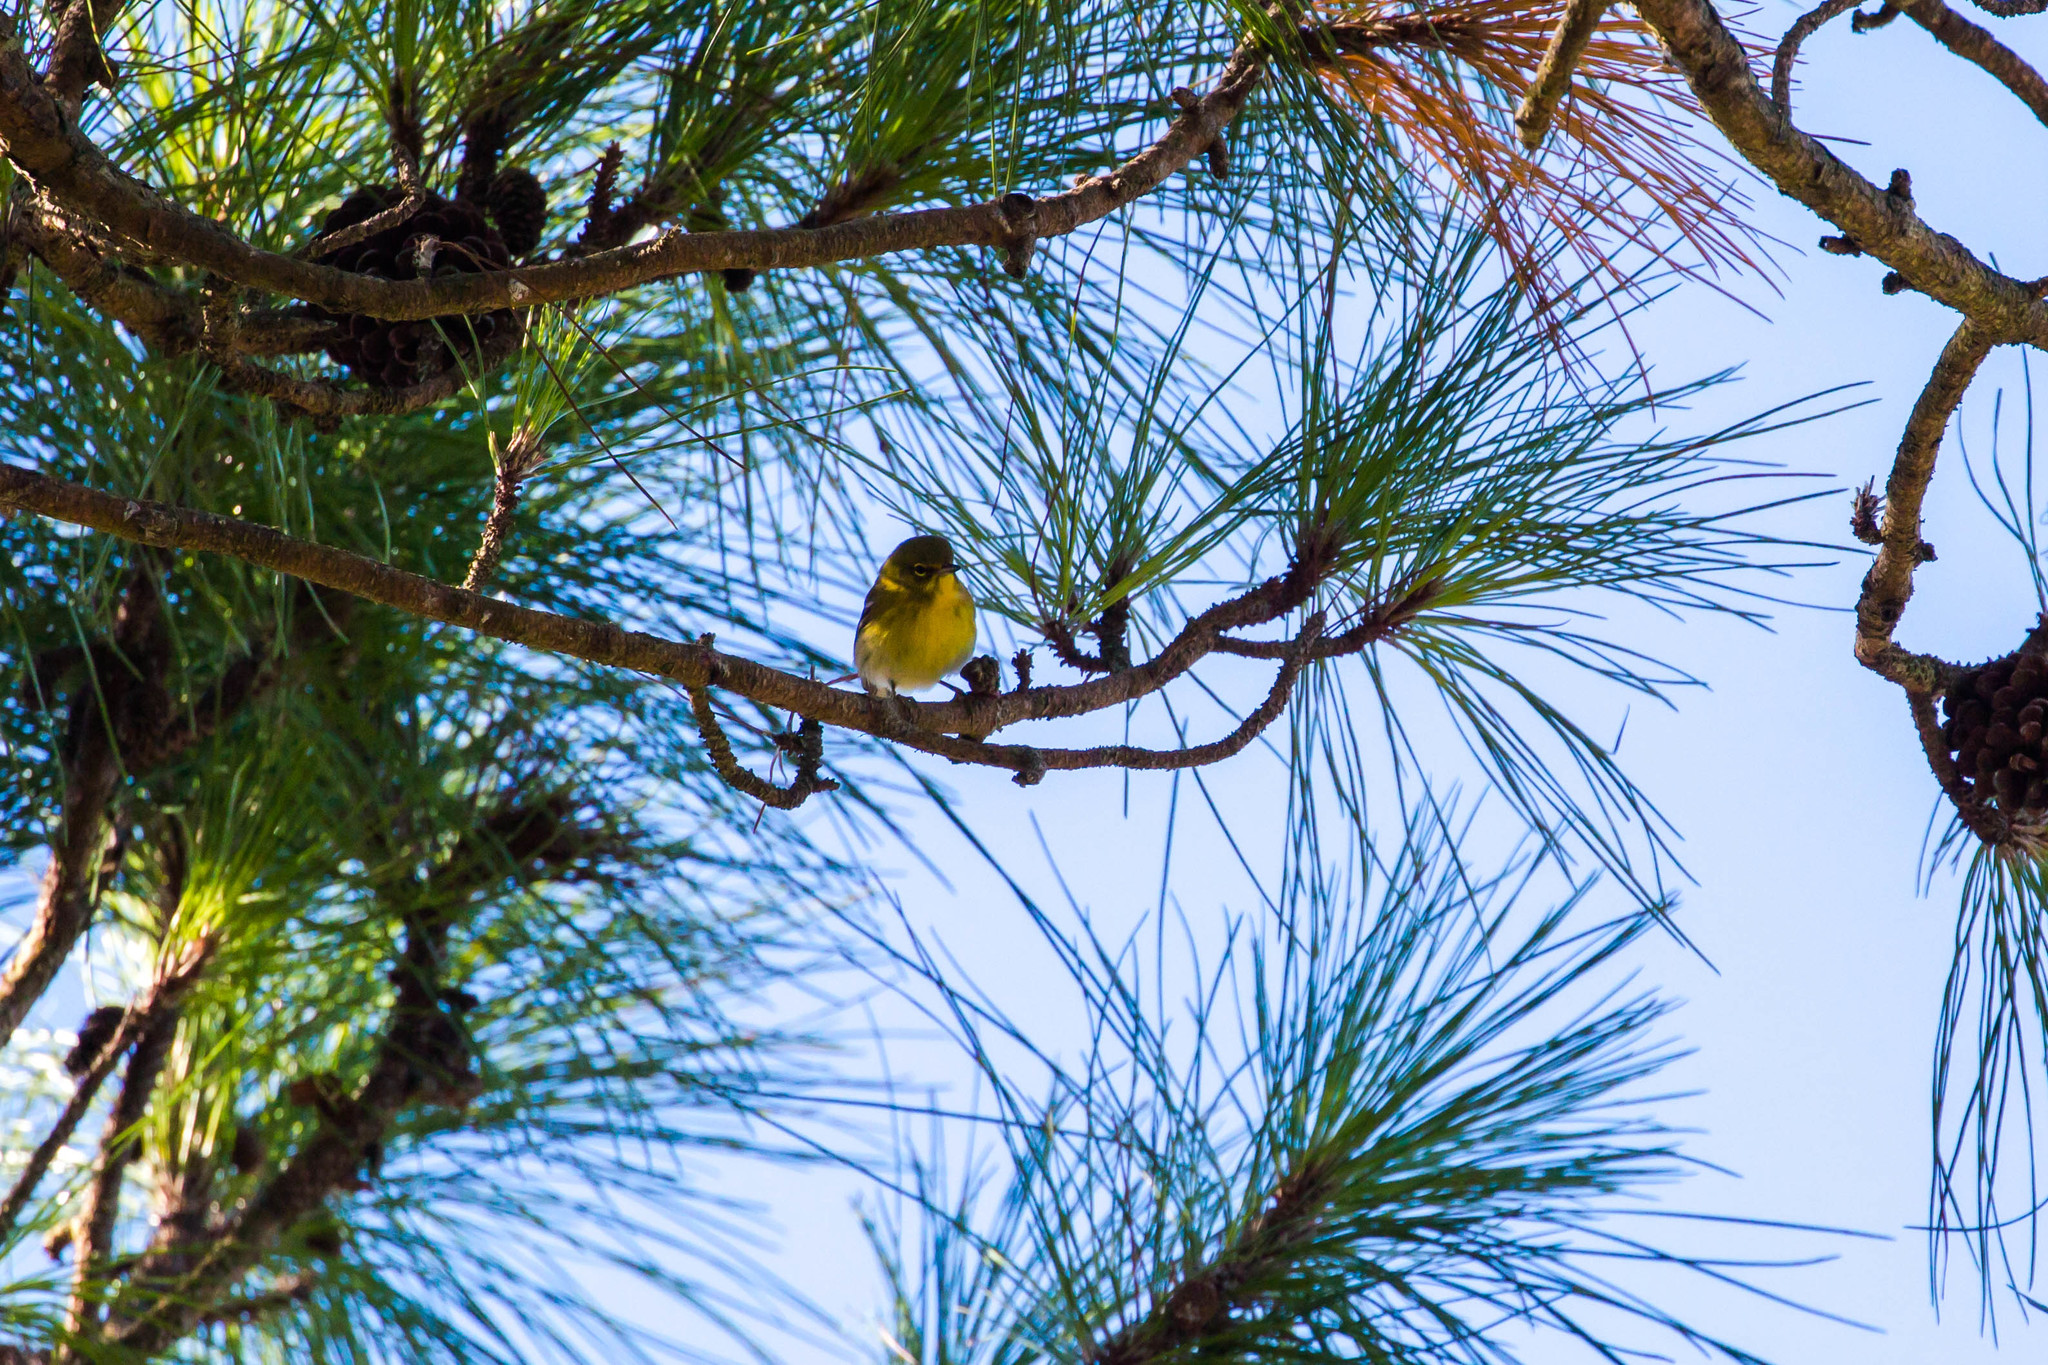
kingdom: Animalia
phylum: Chordata
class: Aves
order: Passeriformes
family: Parulidae
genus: Setophaga
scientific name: Setophaga pinus
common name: Pine warbler
